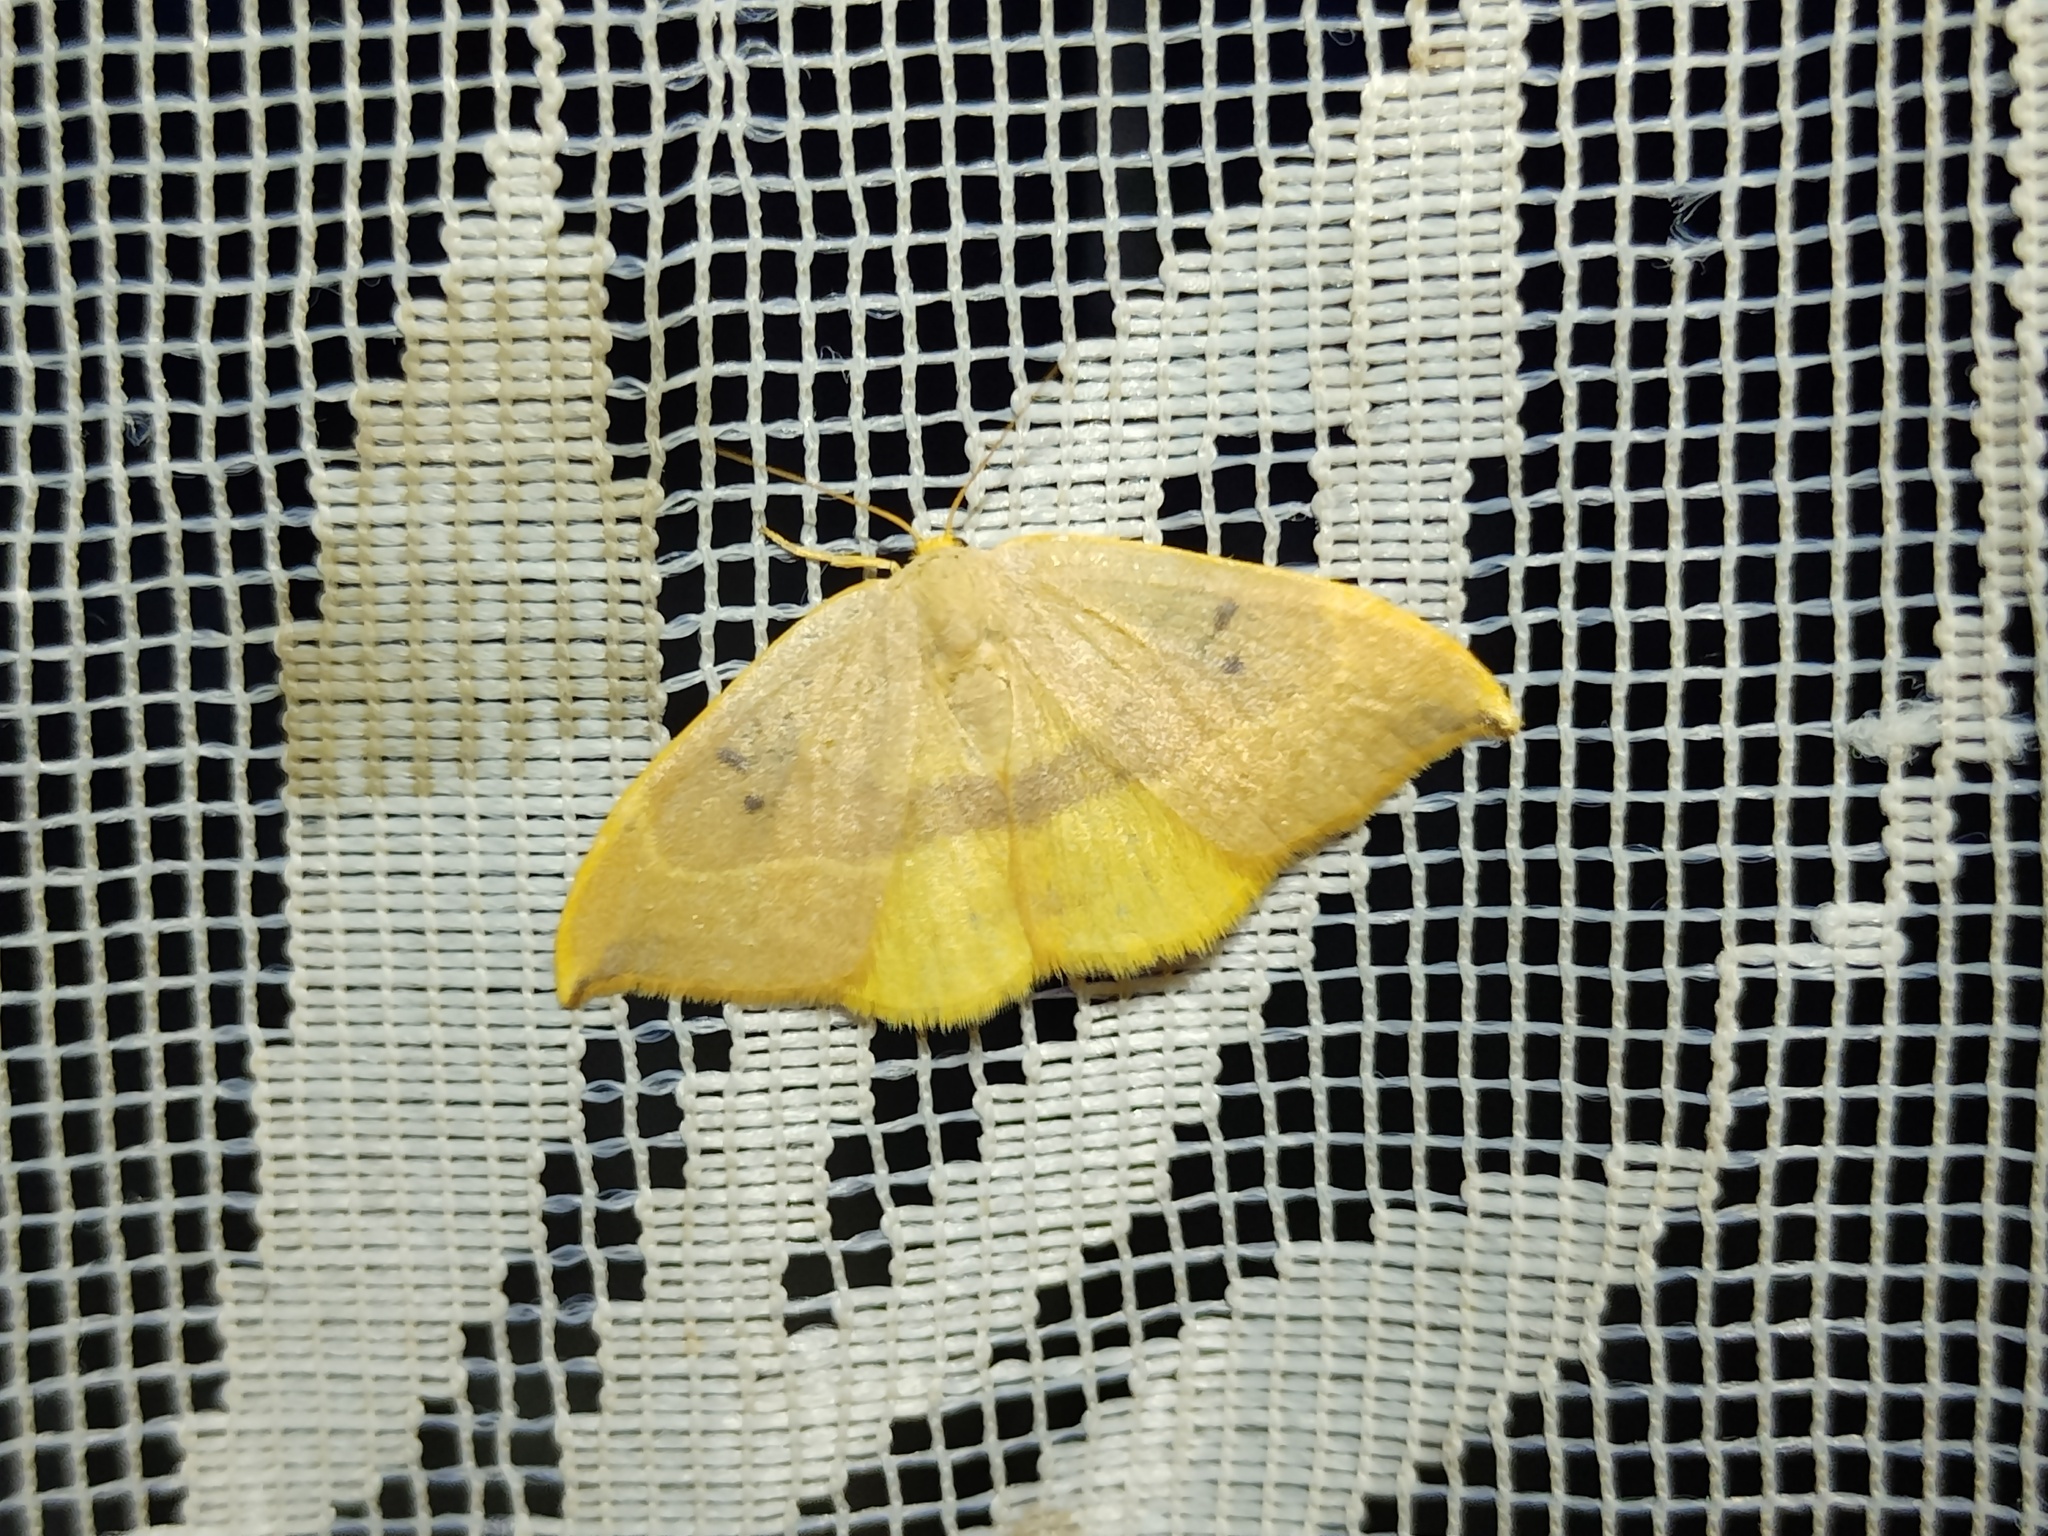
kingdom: Animalia
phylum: Arthropoda
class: Insecta
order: Lepidoptera
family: Drepanidae
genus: Watsonalla
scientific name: Watsonalla binaria
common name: Oak hook-tip
